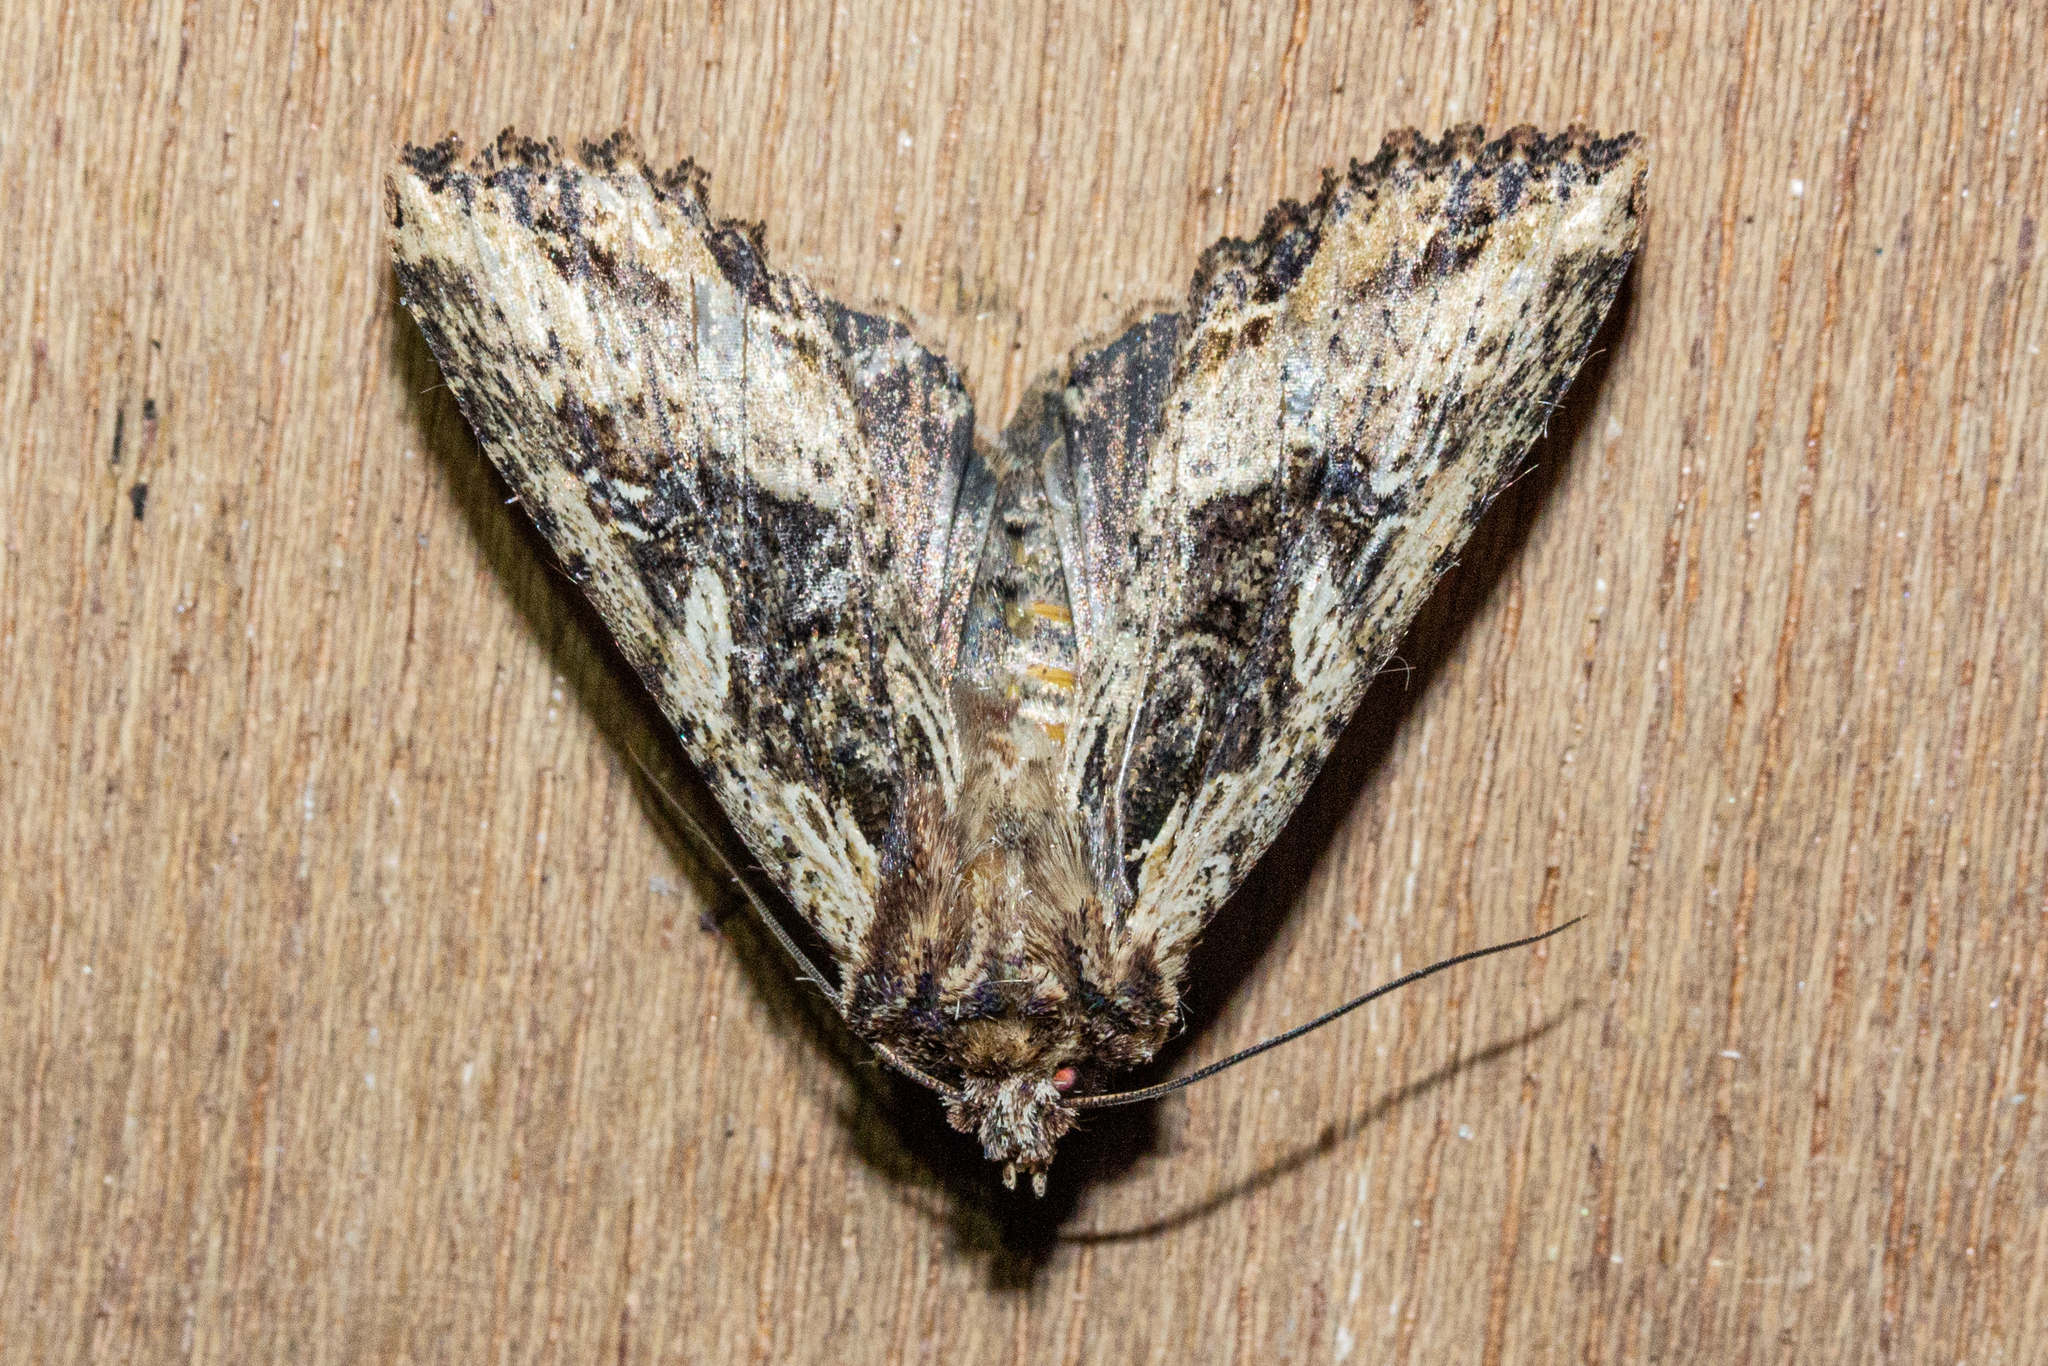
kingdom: Animalia
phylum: Arthropoda
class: Insecta
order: Lepidoptera
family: Noctuidae
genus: Meterana
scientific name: Meterana stipata
